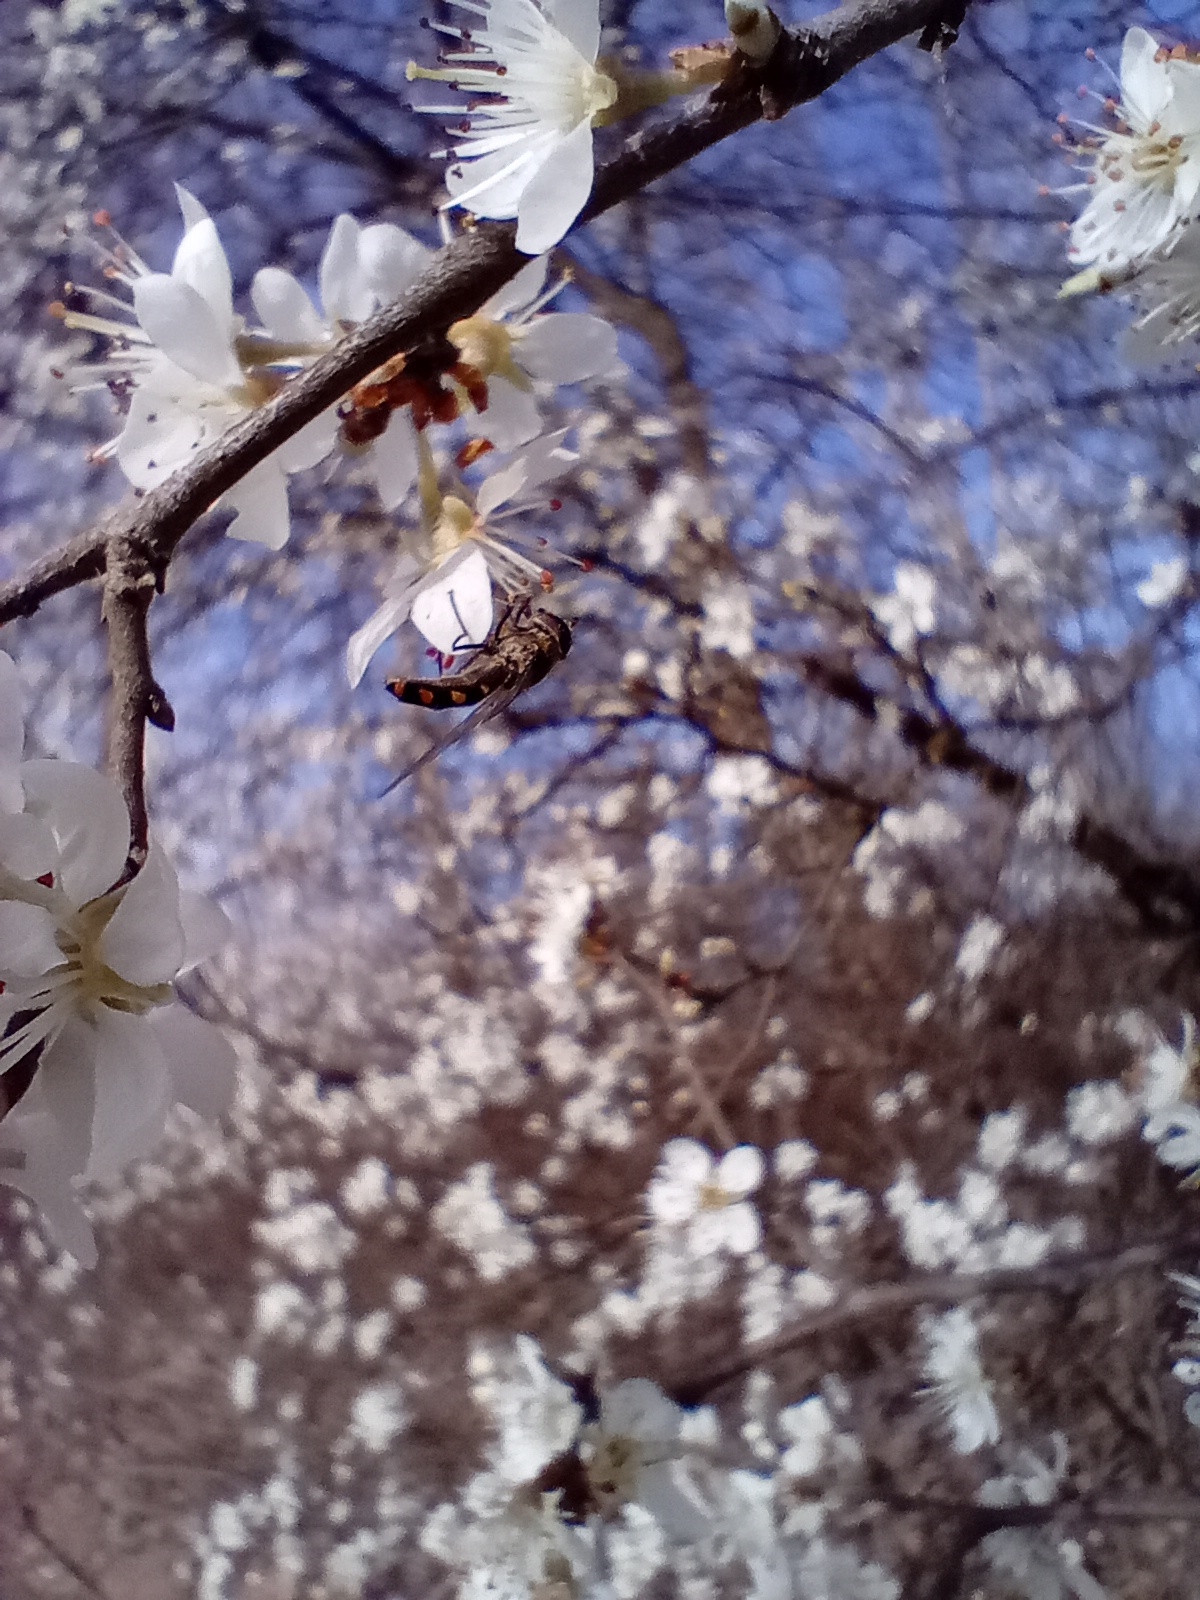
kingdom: Animalia
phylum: Arthropoda
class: Insecta
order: Diptera
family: Syrphidae
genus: Meliscaeva
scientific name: Meliscaeva auricollis
